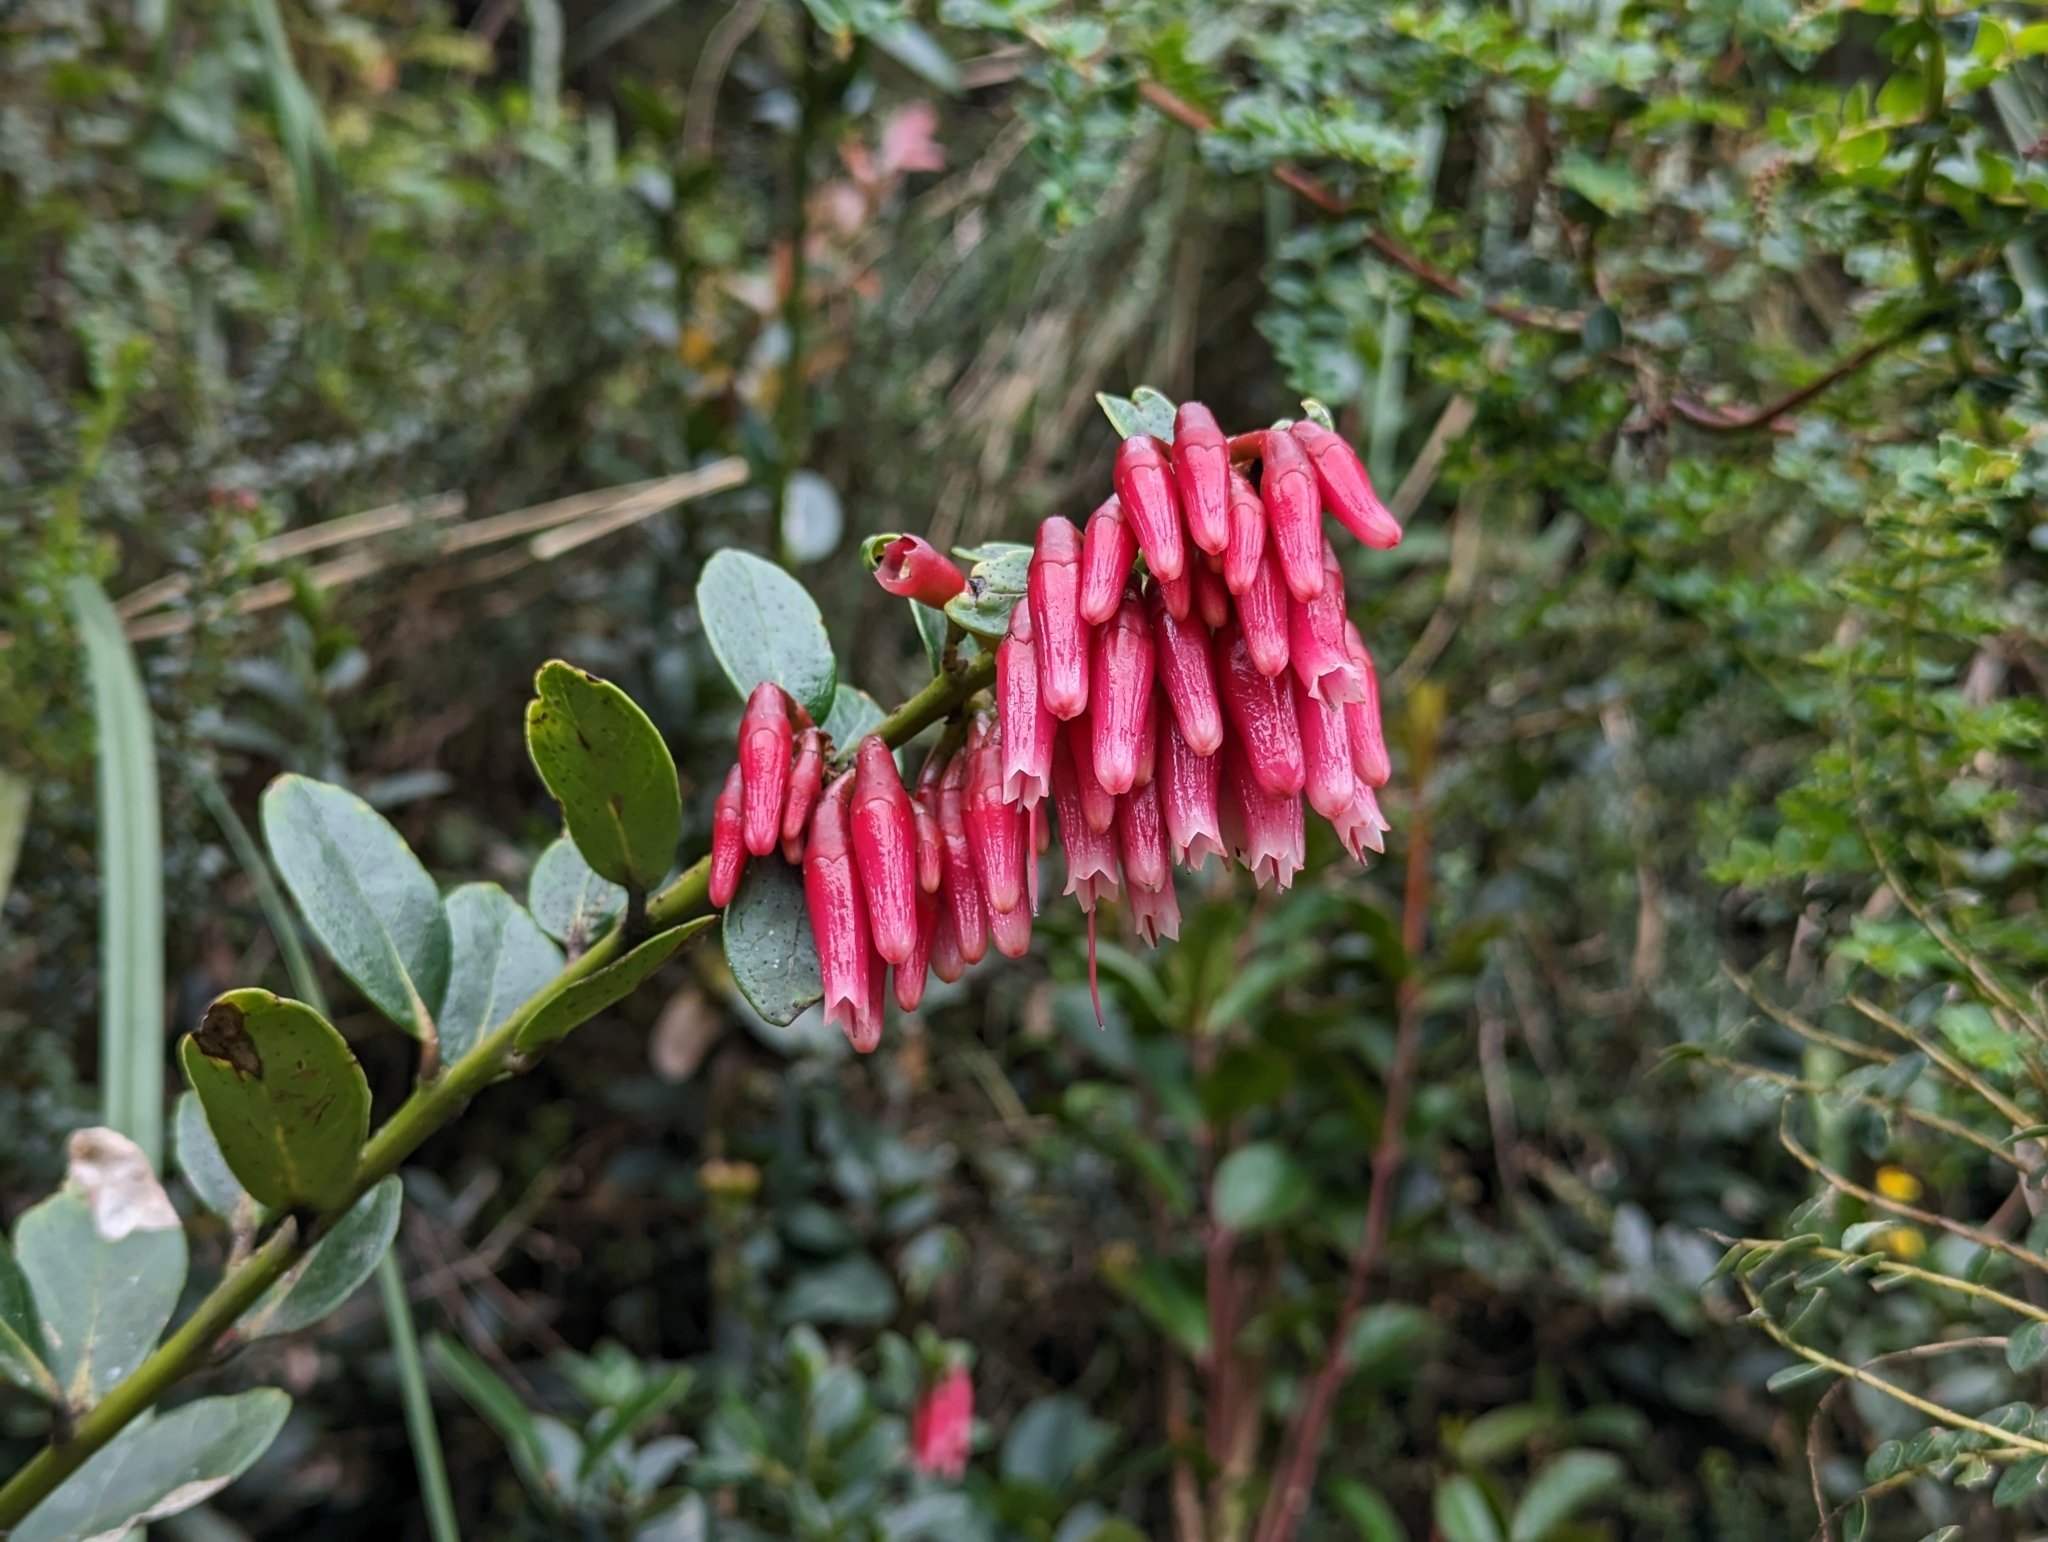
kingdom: Plantae
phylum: Tracheophyta
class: Magnoliopsida
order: Ericales
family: Ericaceae
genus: Macleania
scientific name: Macleania rupestris
